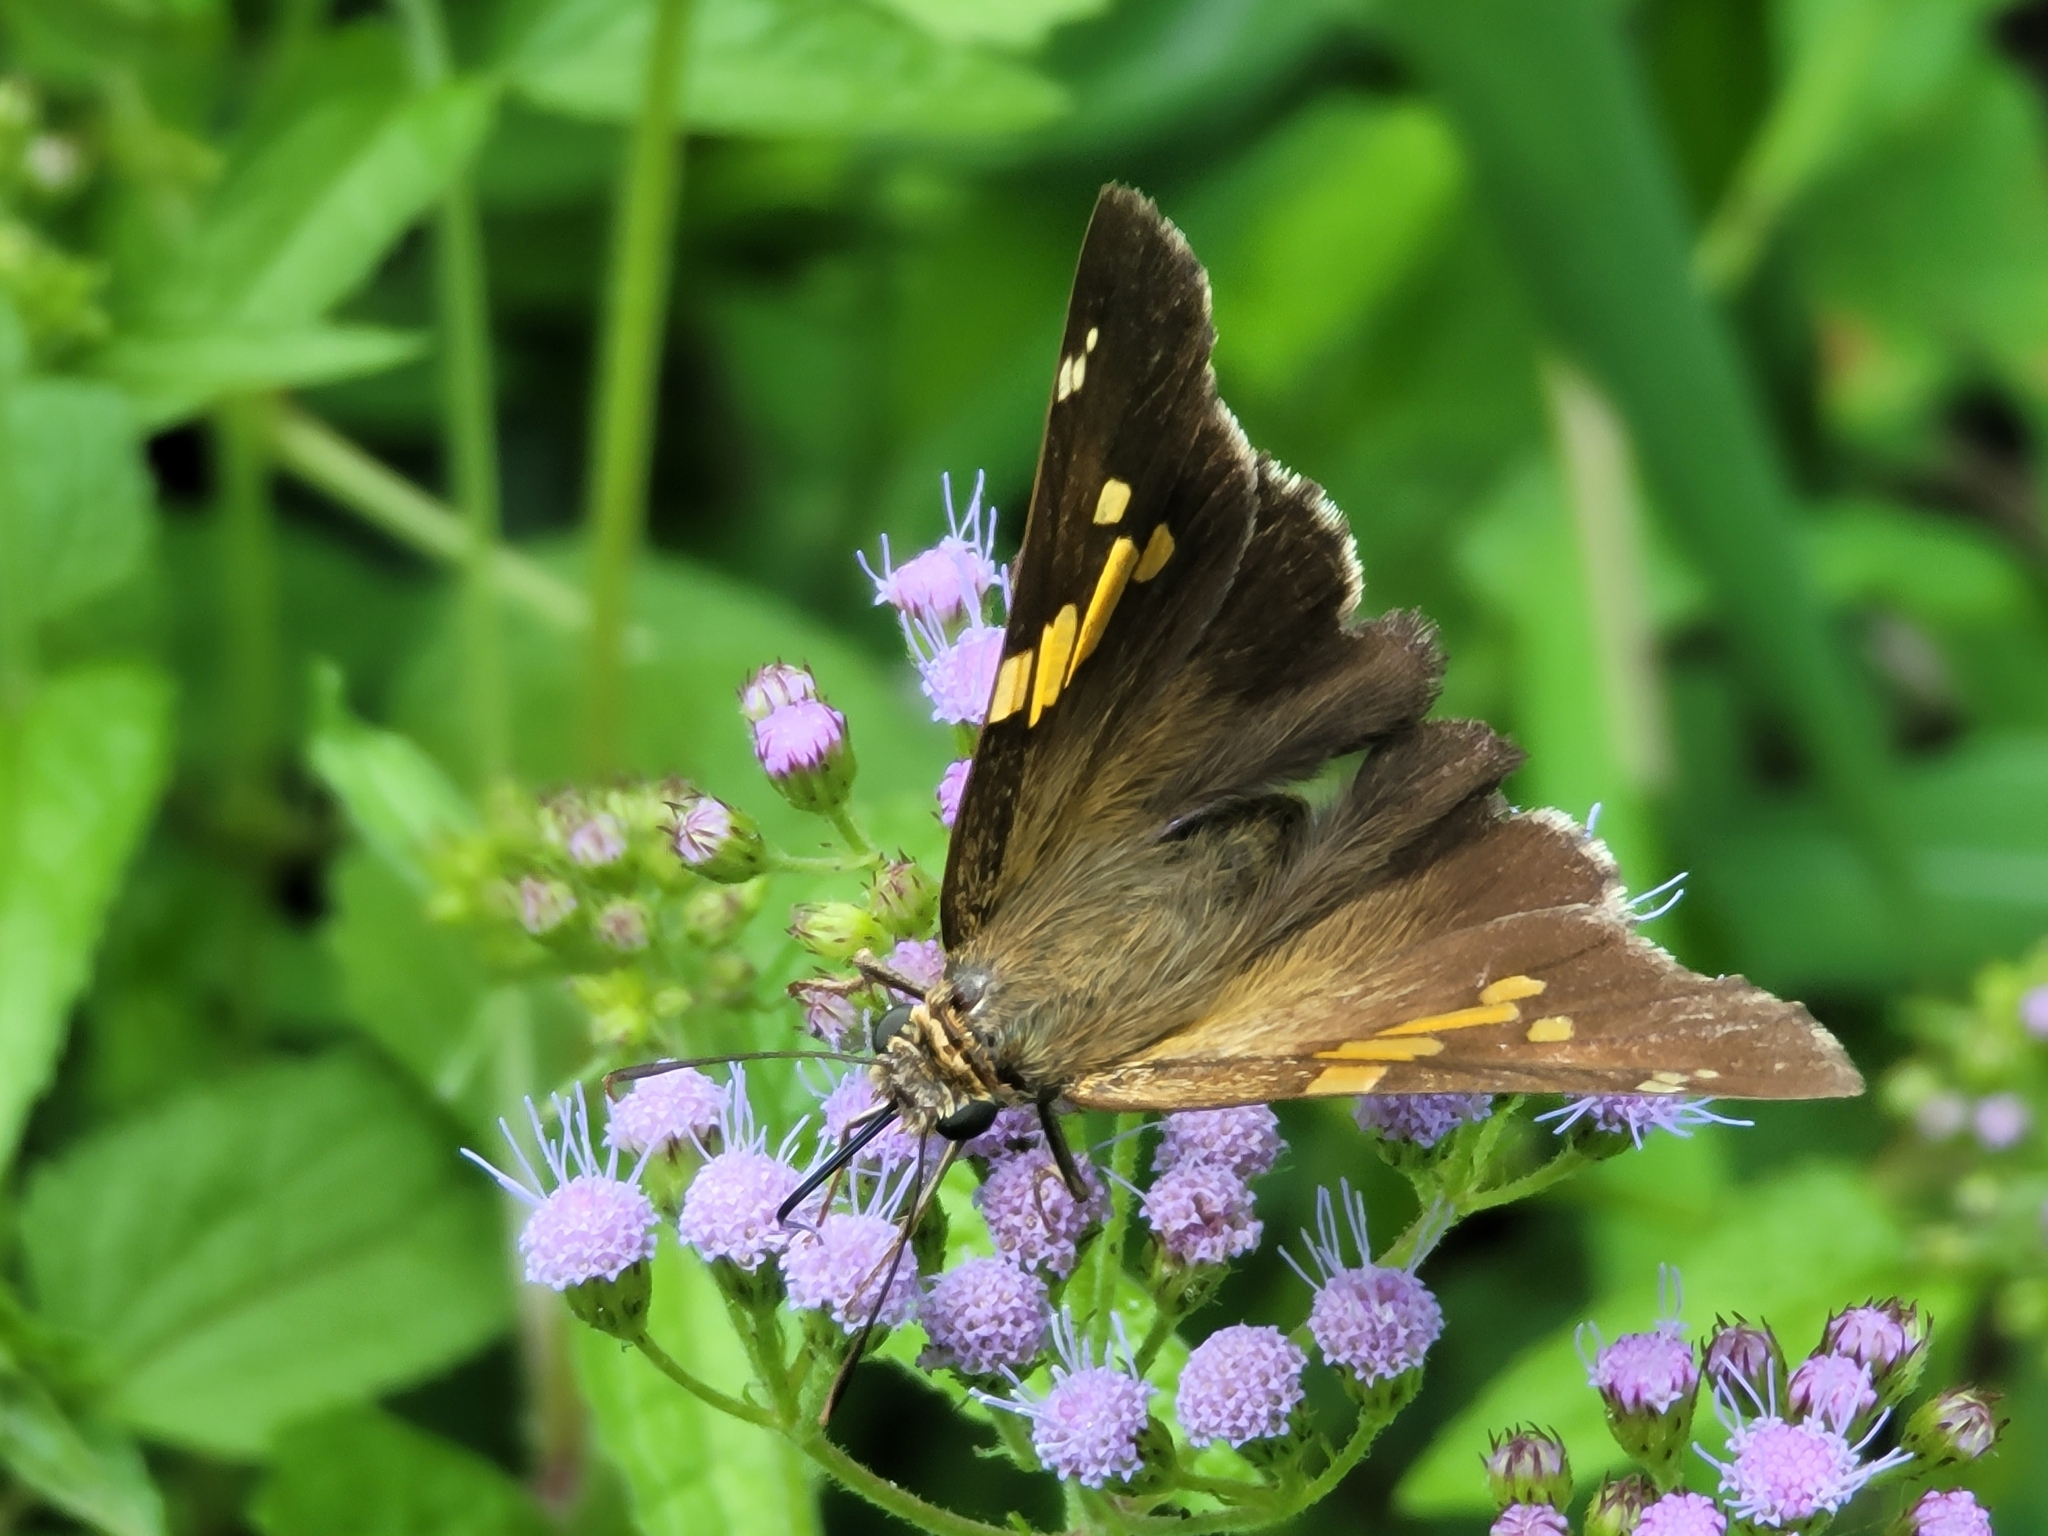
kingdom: Animalia
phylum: Arthropoda
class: Insecta
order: Lepidoptera
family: Hesperiidae
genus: Epargyreus
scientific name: Epargyreus clarus
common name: Silver-spotted skipper
